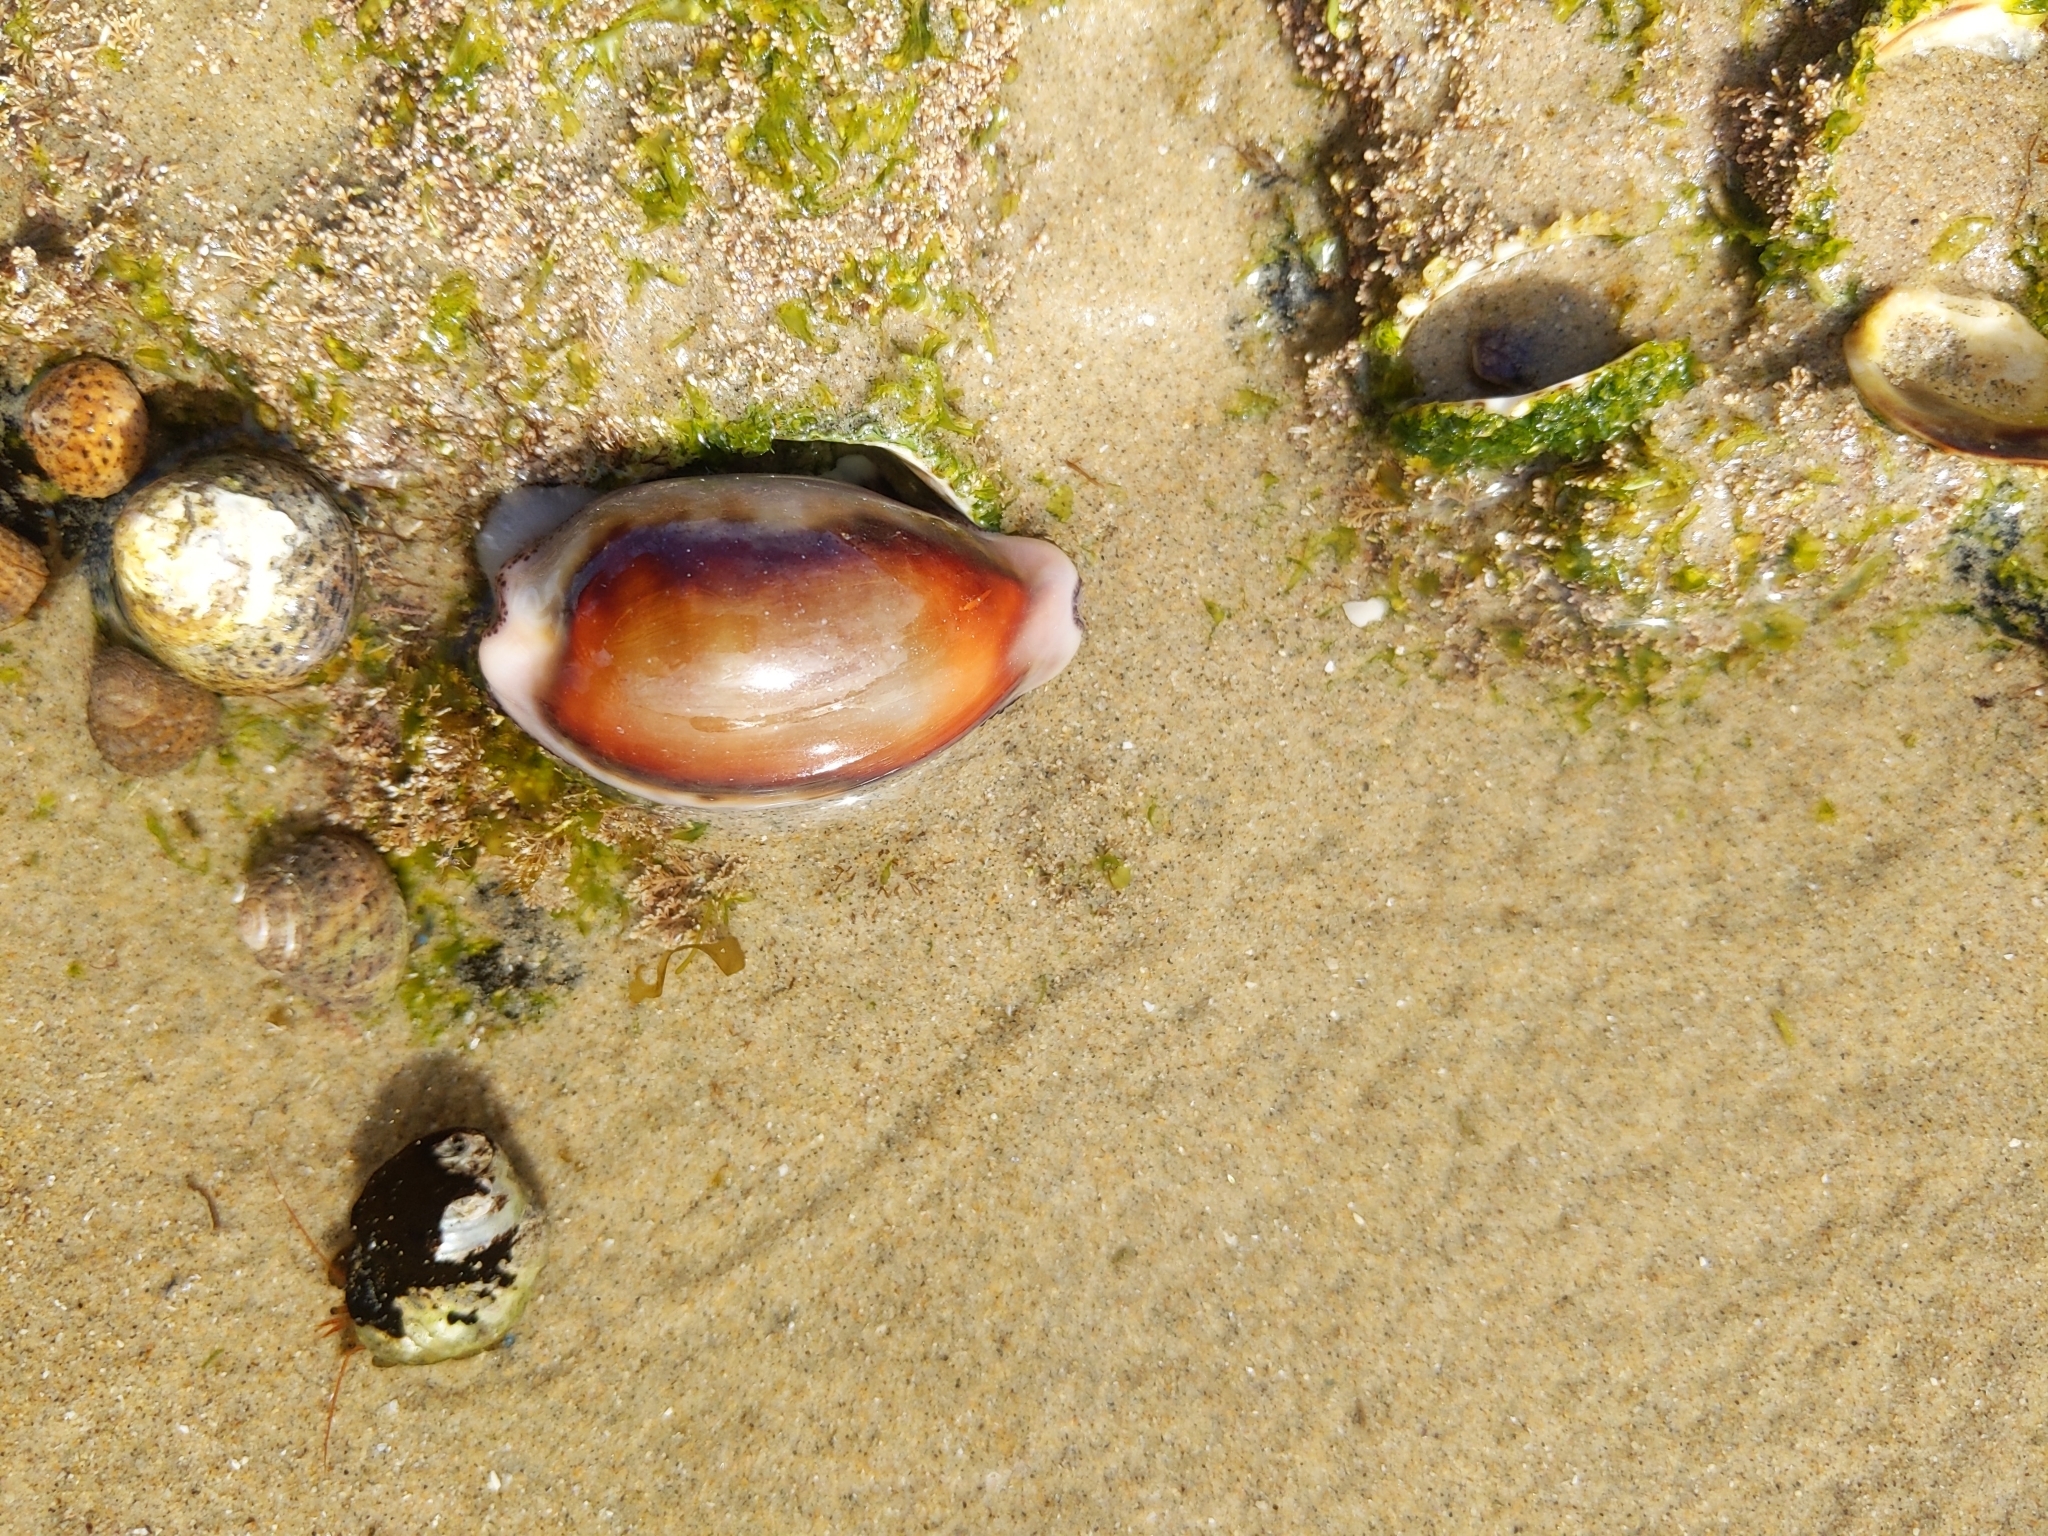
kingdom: Animalia
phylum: Mollusca
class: Gastropoda
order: Littorinimorpha
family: Cypraeidae
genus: Neobernaya
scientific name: Neobernaya spadicea
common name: Chestnut cowrie
